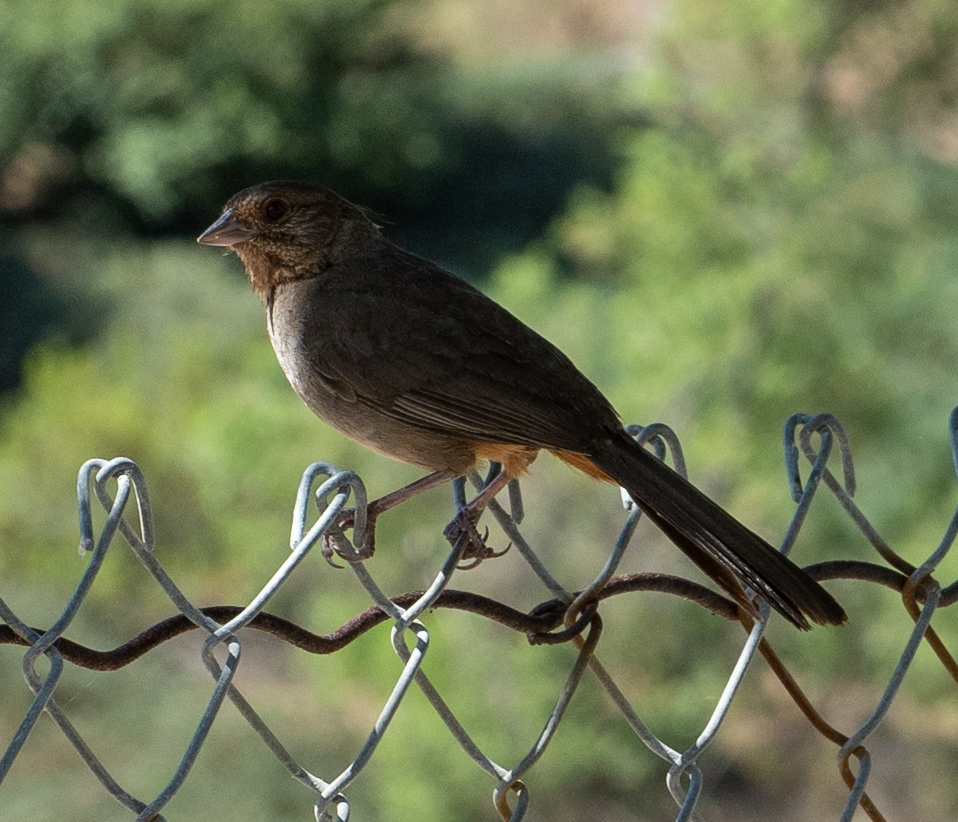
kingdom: Animalia
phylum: Chordata
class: Aves
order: Passeriformes
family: Passerellidae
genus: Melozone
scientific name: Melozone crissalis
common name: California towhee
